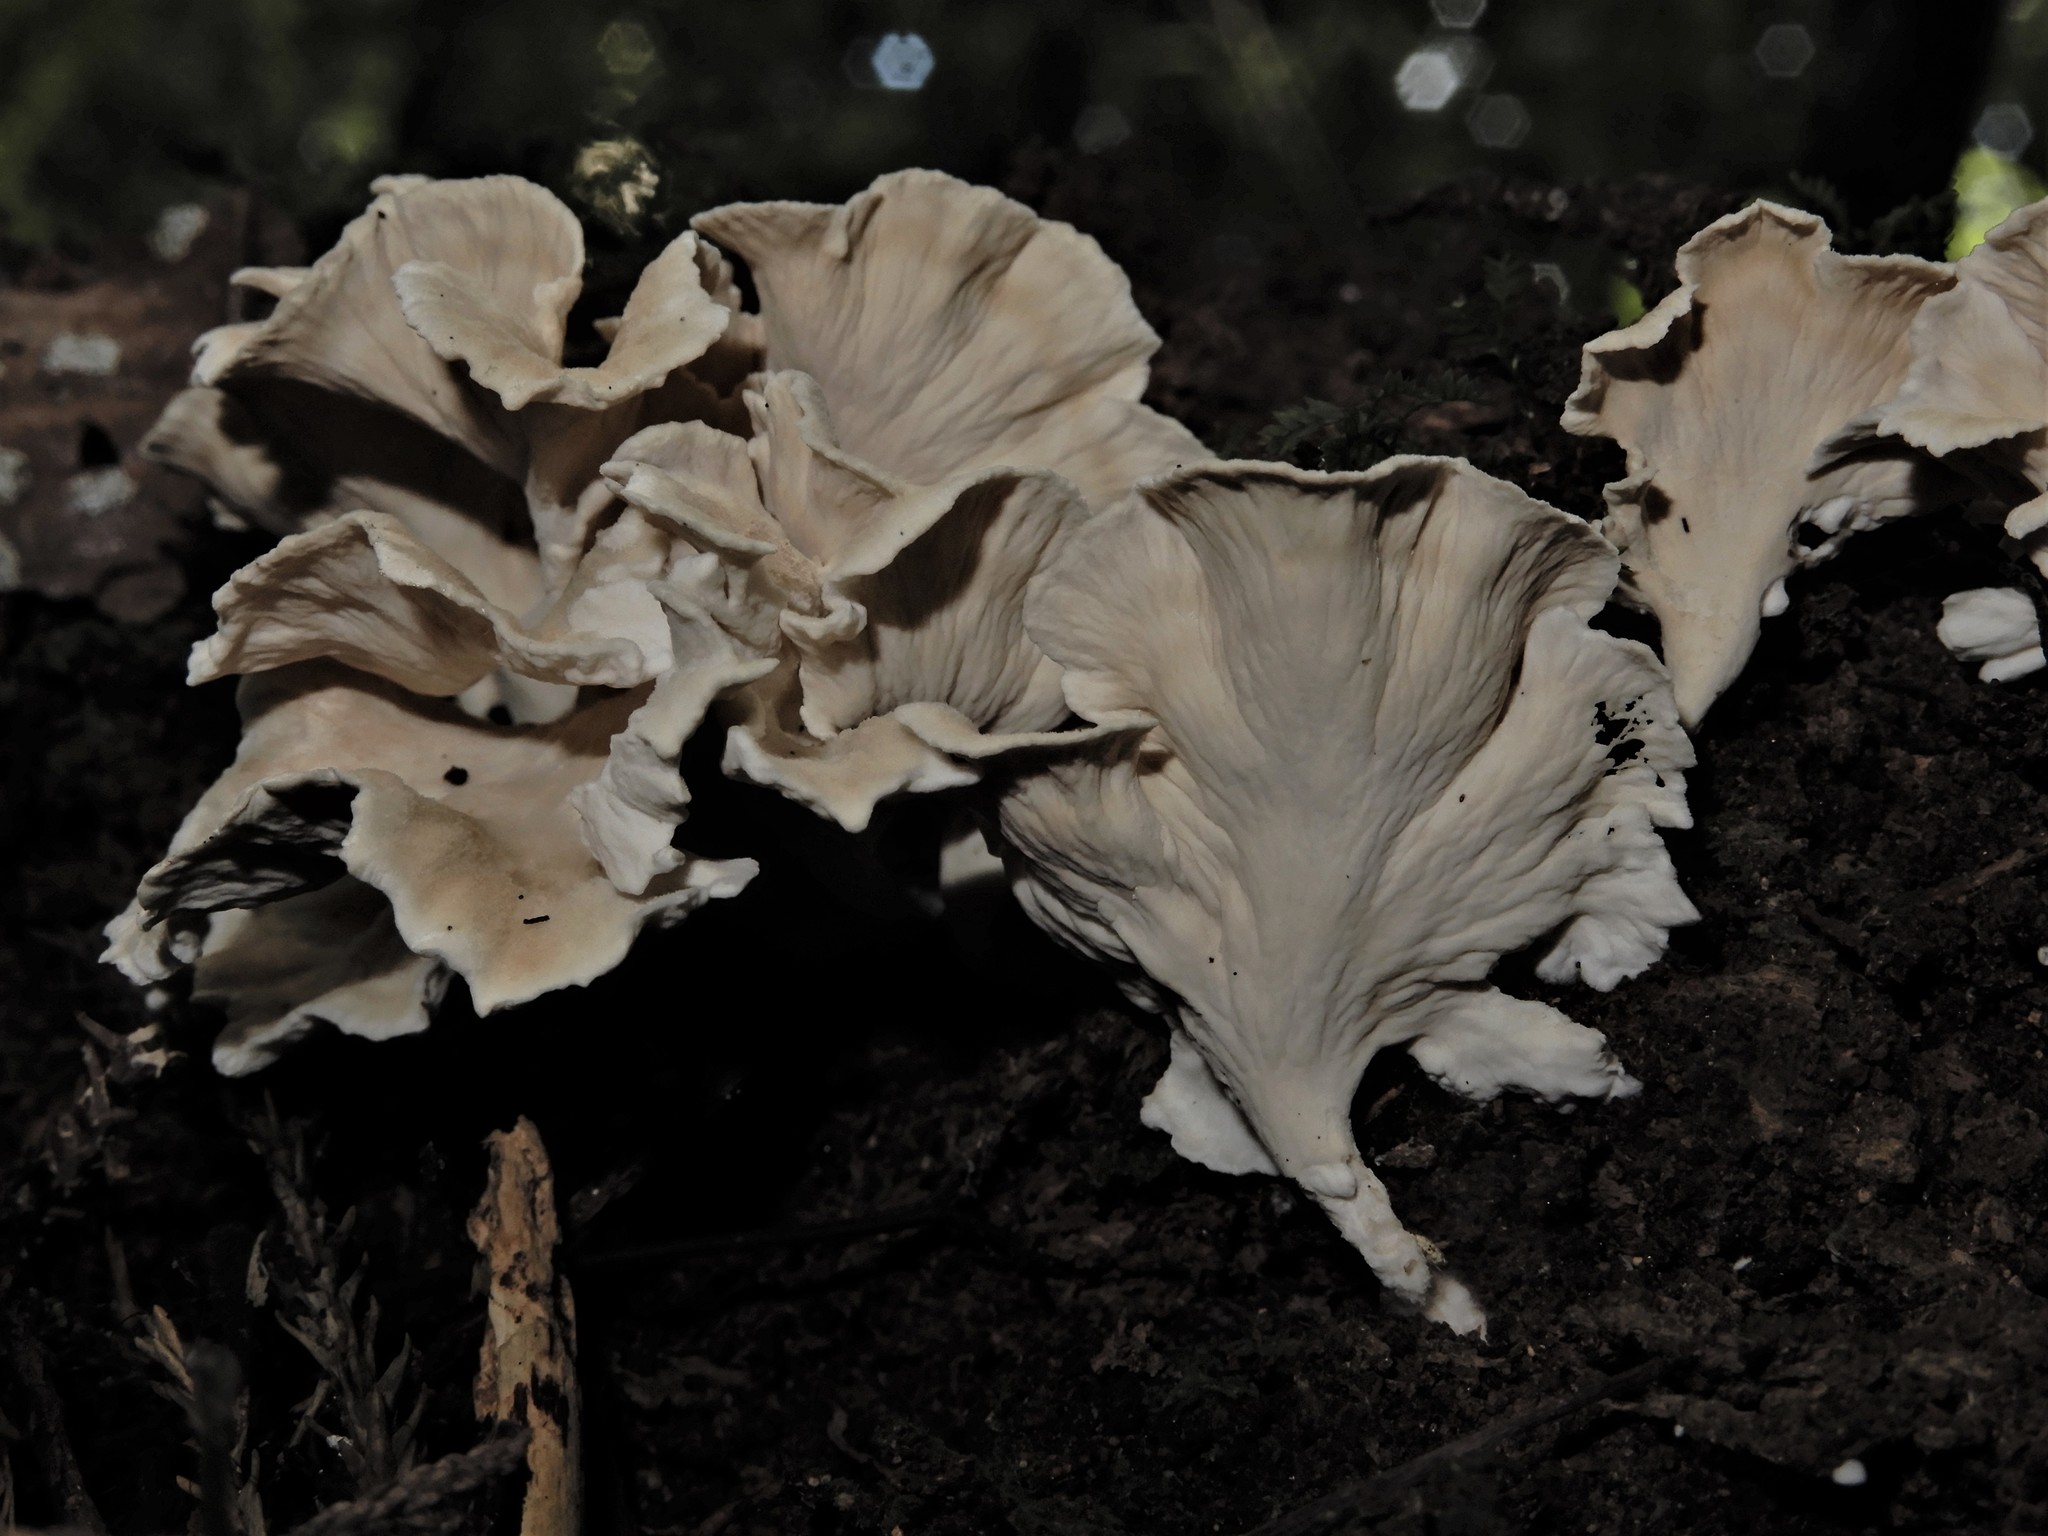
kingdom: Fungi
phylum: Basidiomycota
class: Agaricomycetes
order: Amylocorticiales
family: Amylocorticiaceae
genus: Podoserpula
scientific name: Podoserpula
